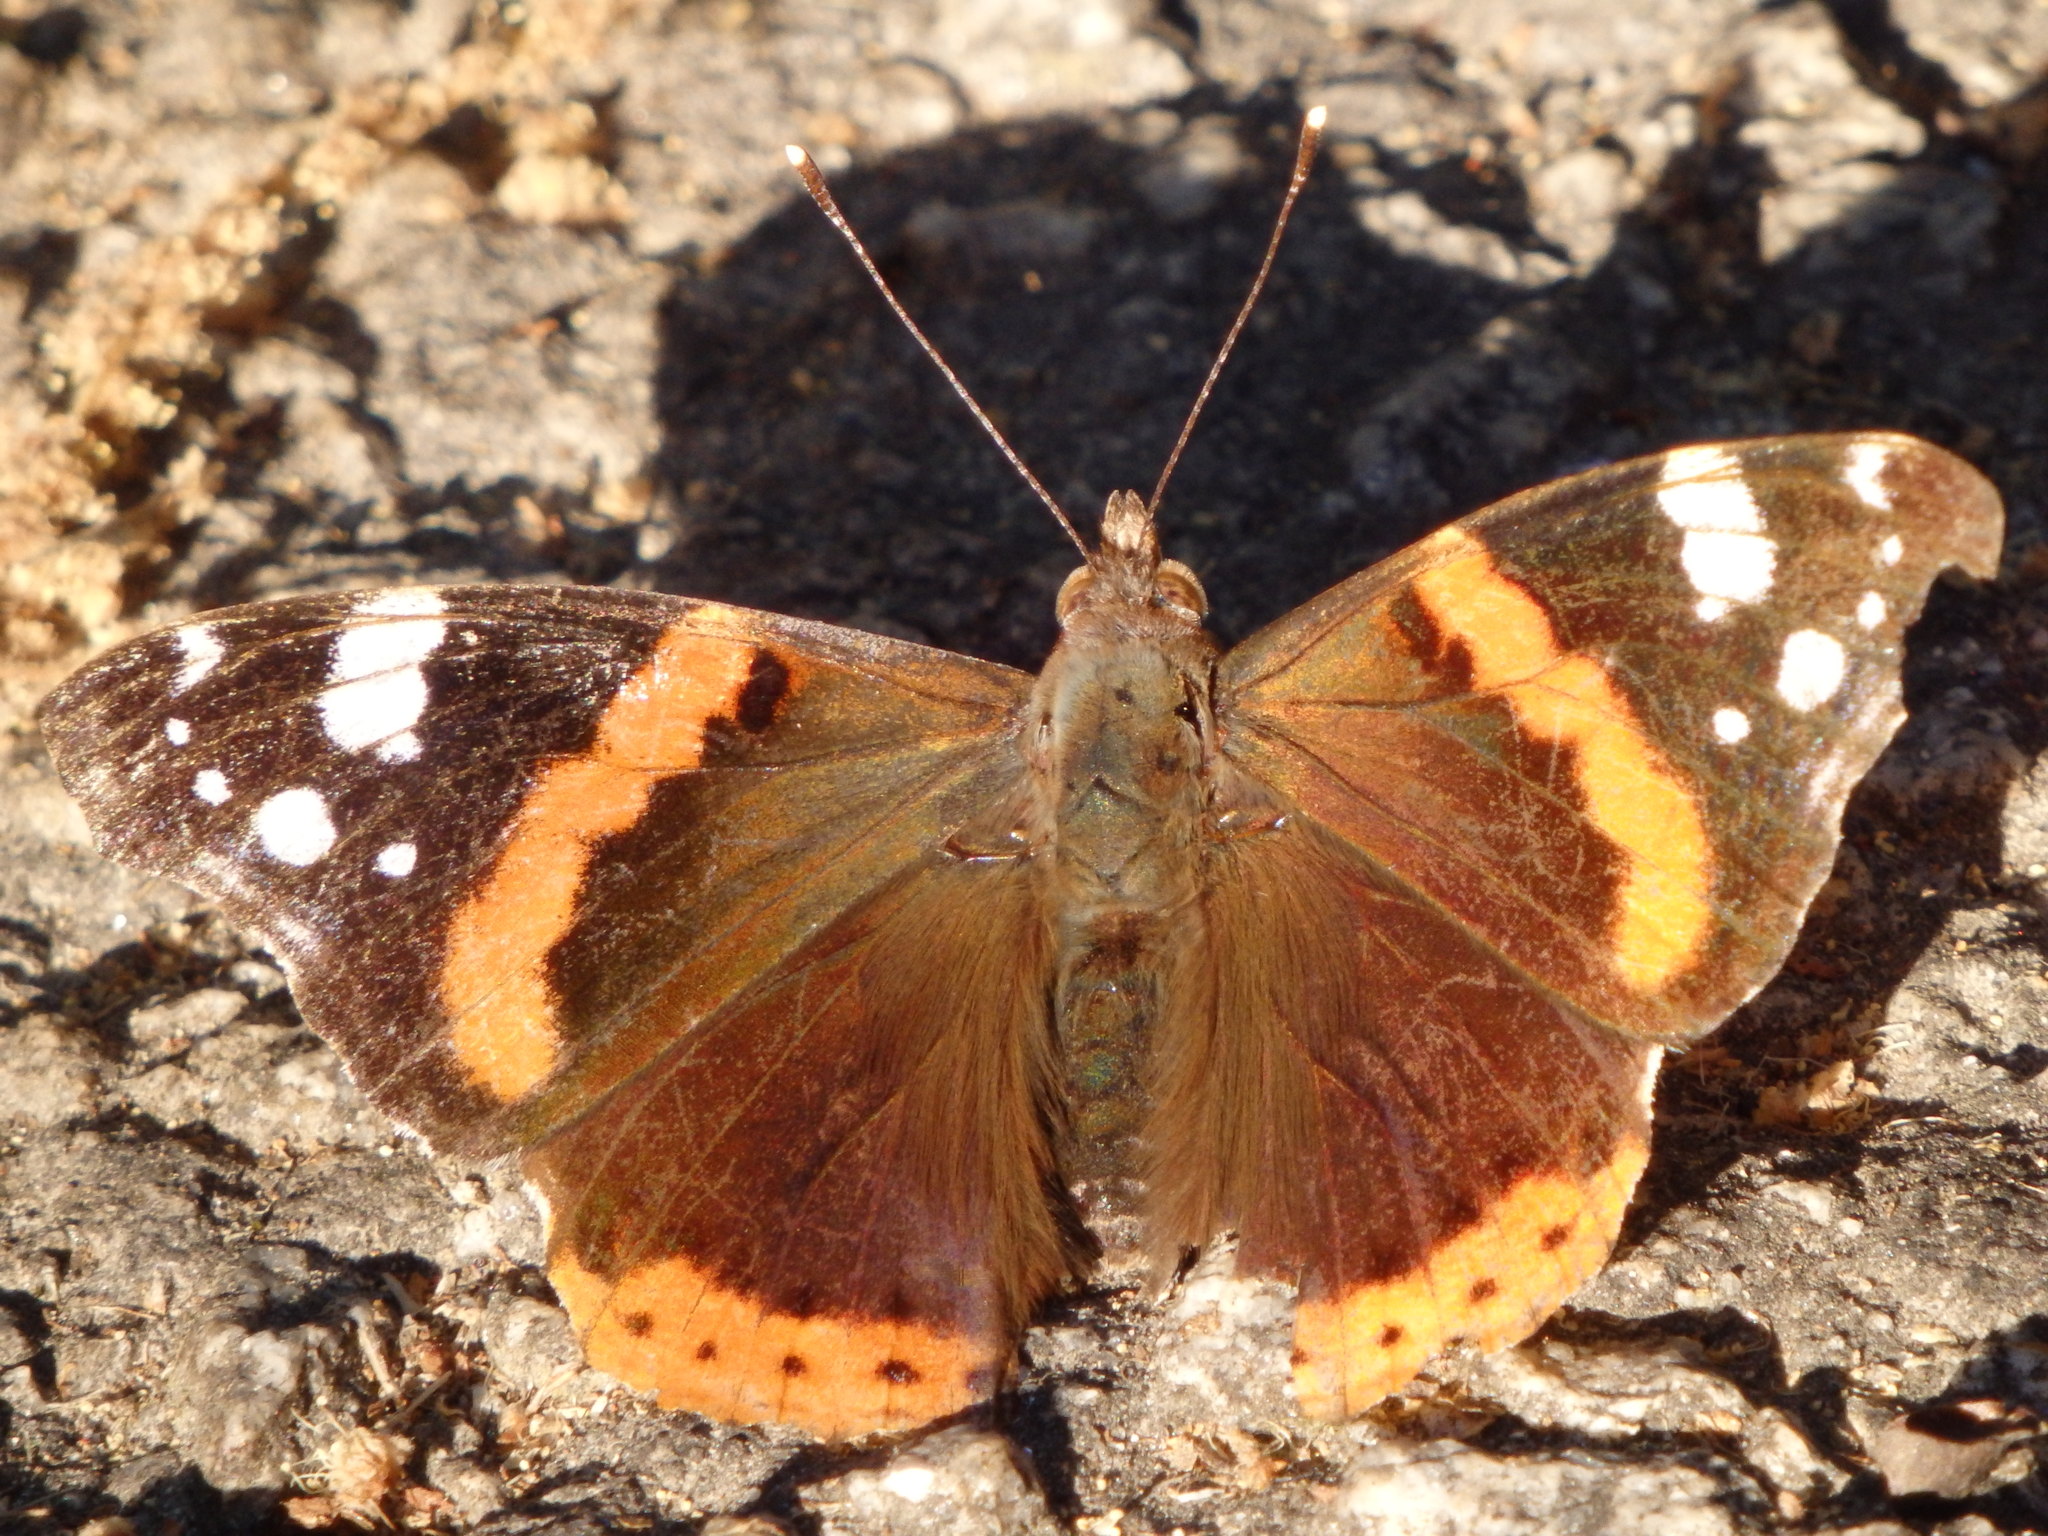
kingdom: Animalia
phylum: Arthropoda
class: Insecta
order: Lepidoptera
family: Nymphalidae
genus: Vanessa
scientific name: Vanessa atalanta
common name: Red admiral
